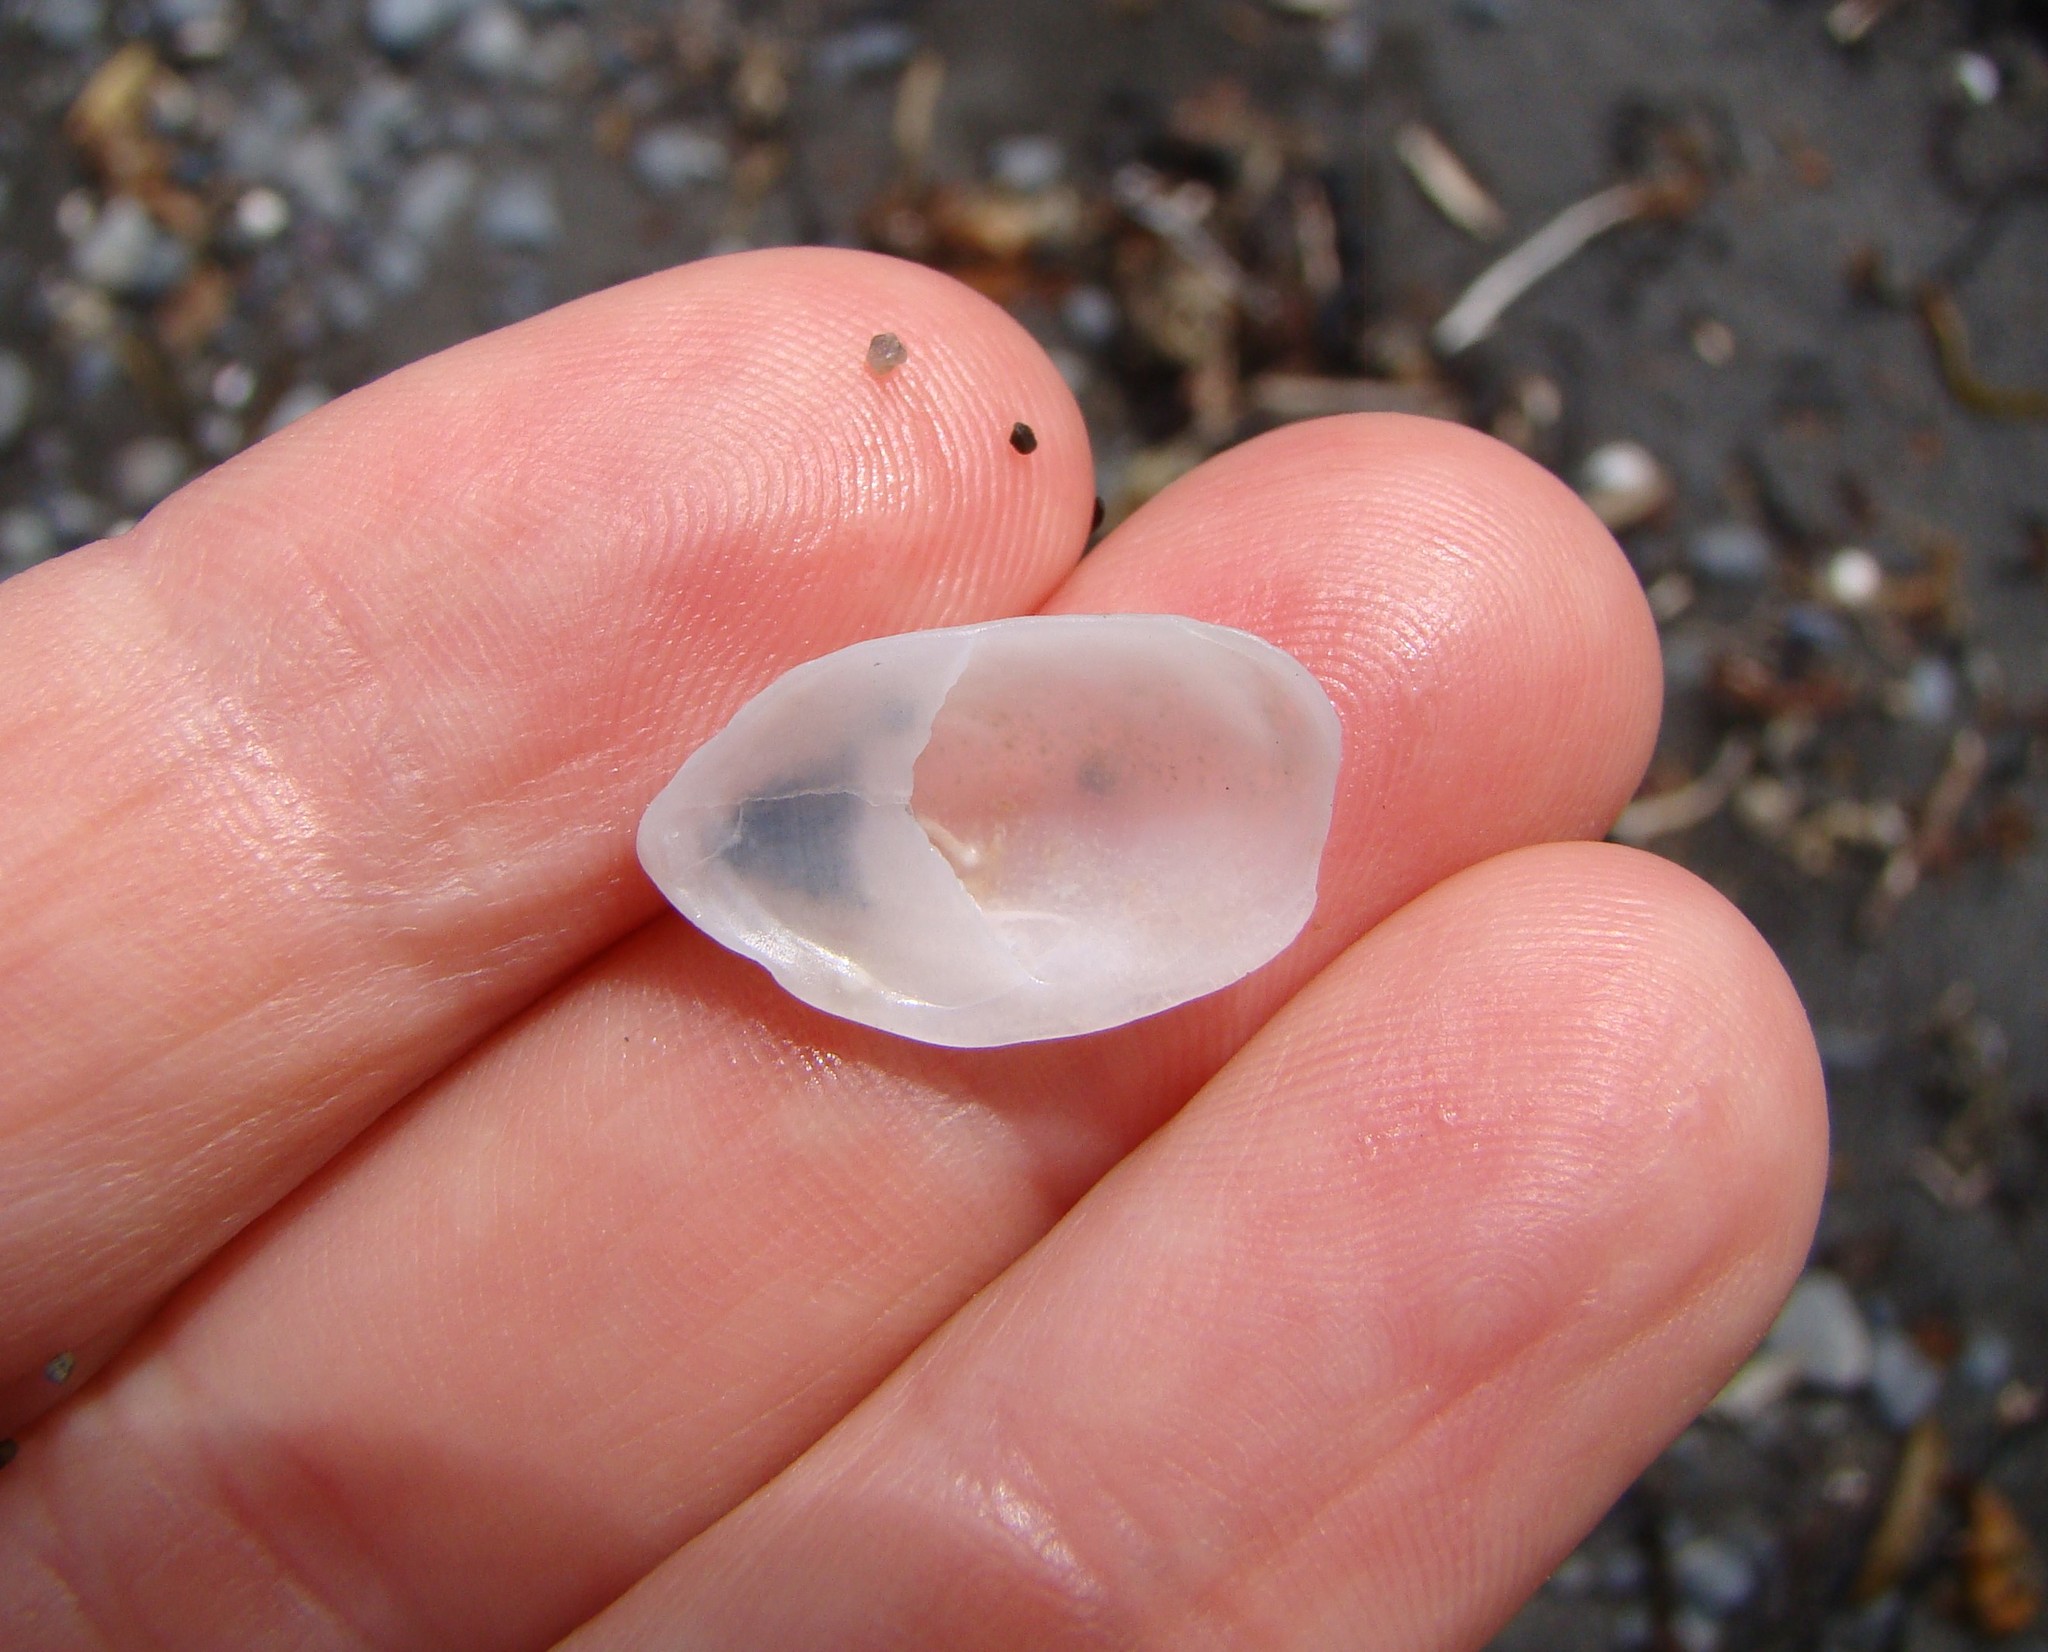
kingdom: Animalia
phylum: Mollusca
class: Gastropoda
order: Littorinimorpha
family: Calyptraeidae
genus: Maoricrypta
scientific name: Maoricrypta monoxyla
